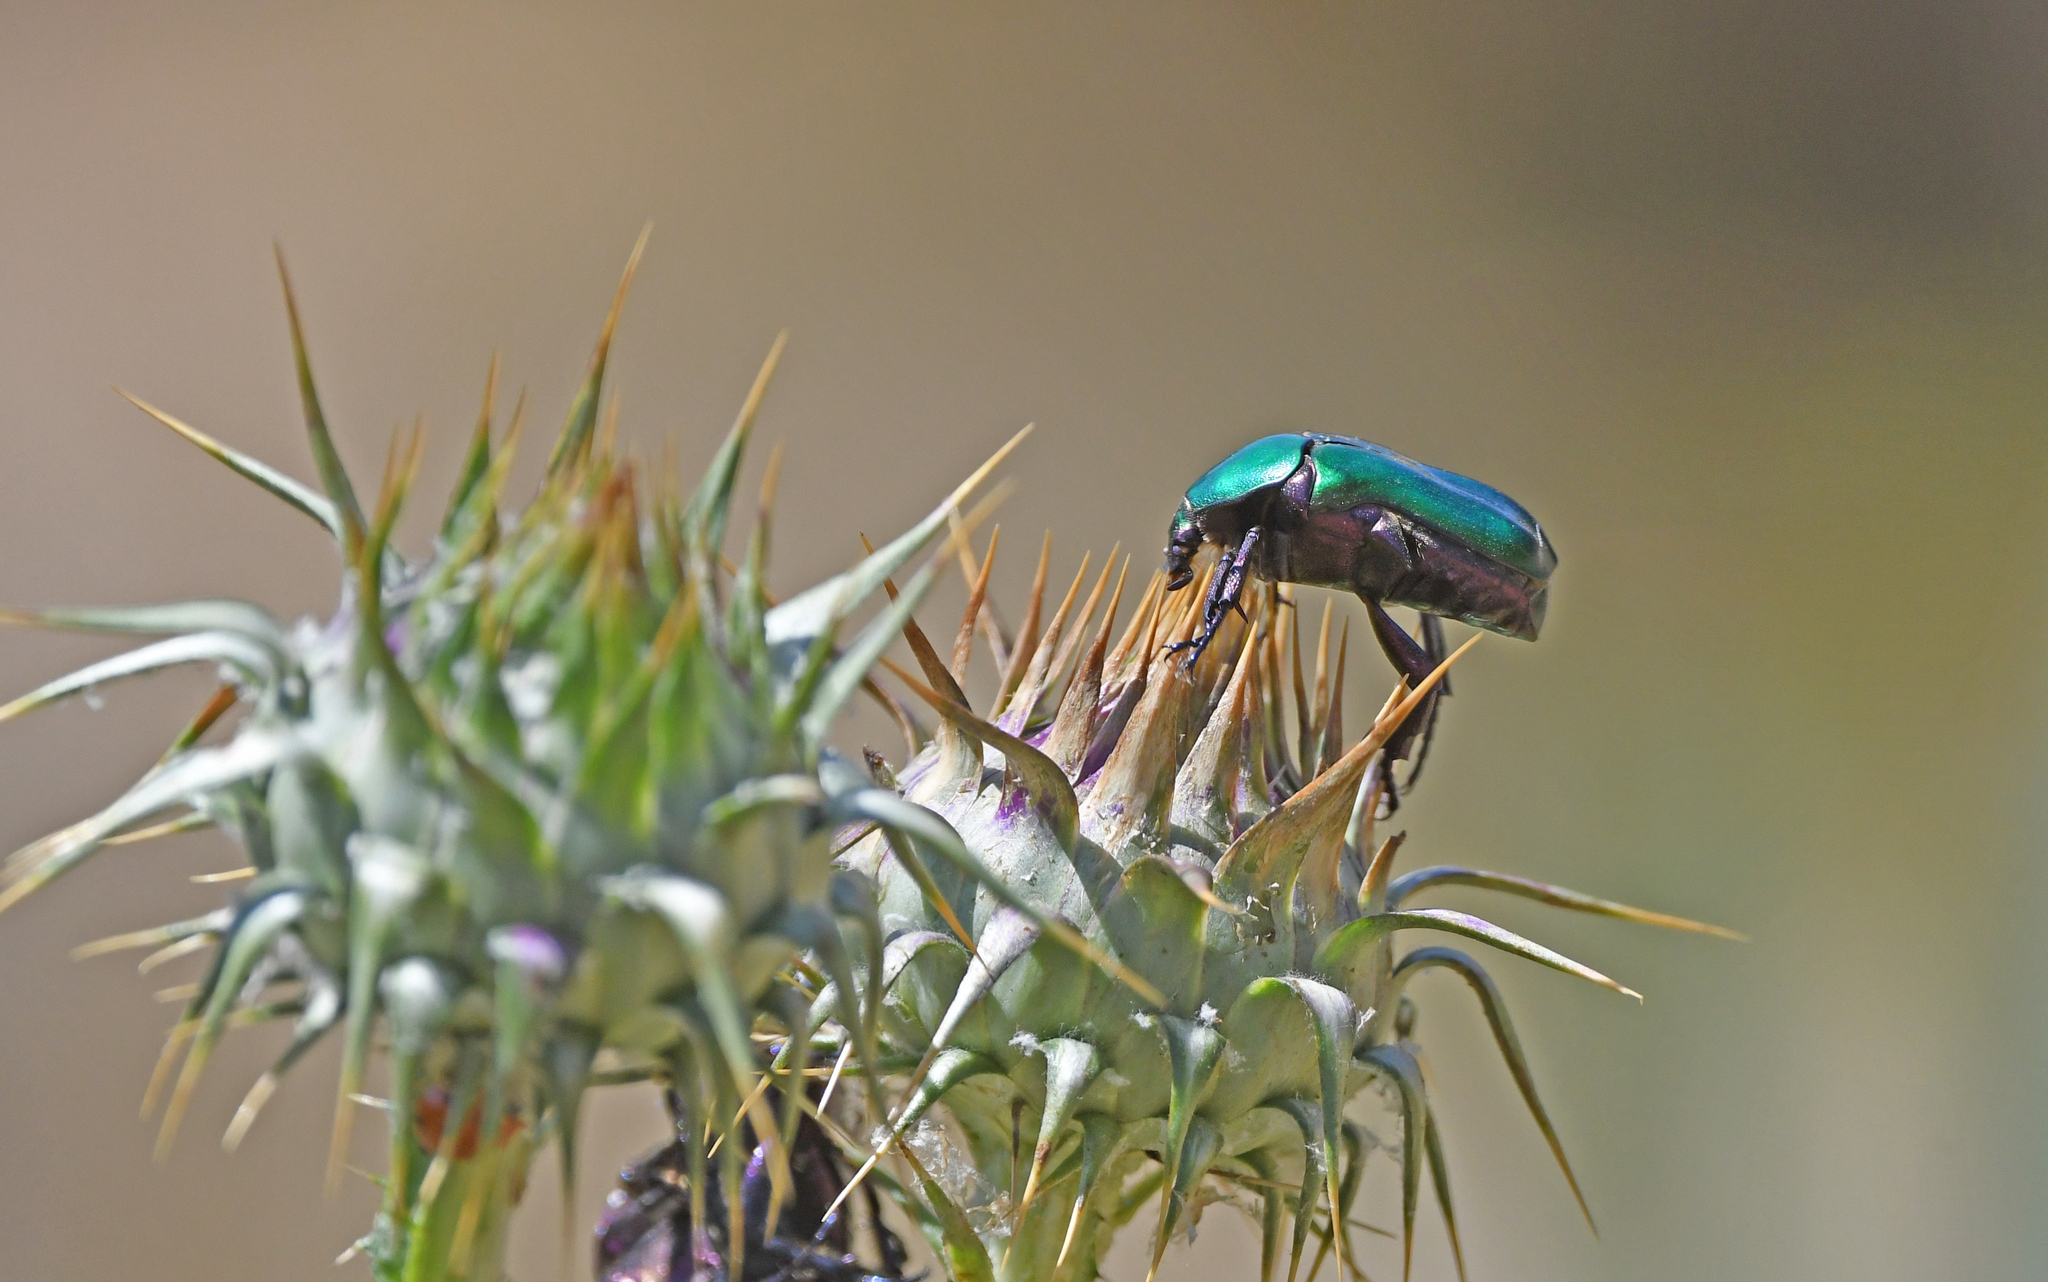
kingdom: Animalia
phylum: Arthropoda
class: Insecta
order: Coleoptera
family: Scarabaeidae
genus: Protaetia
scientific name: Protaetia cuprea
